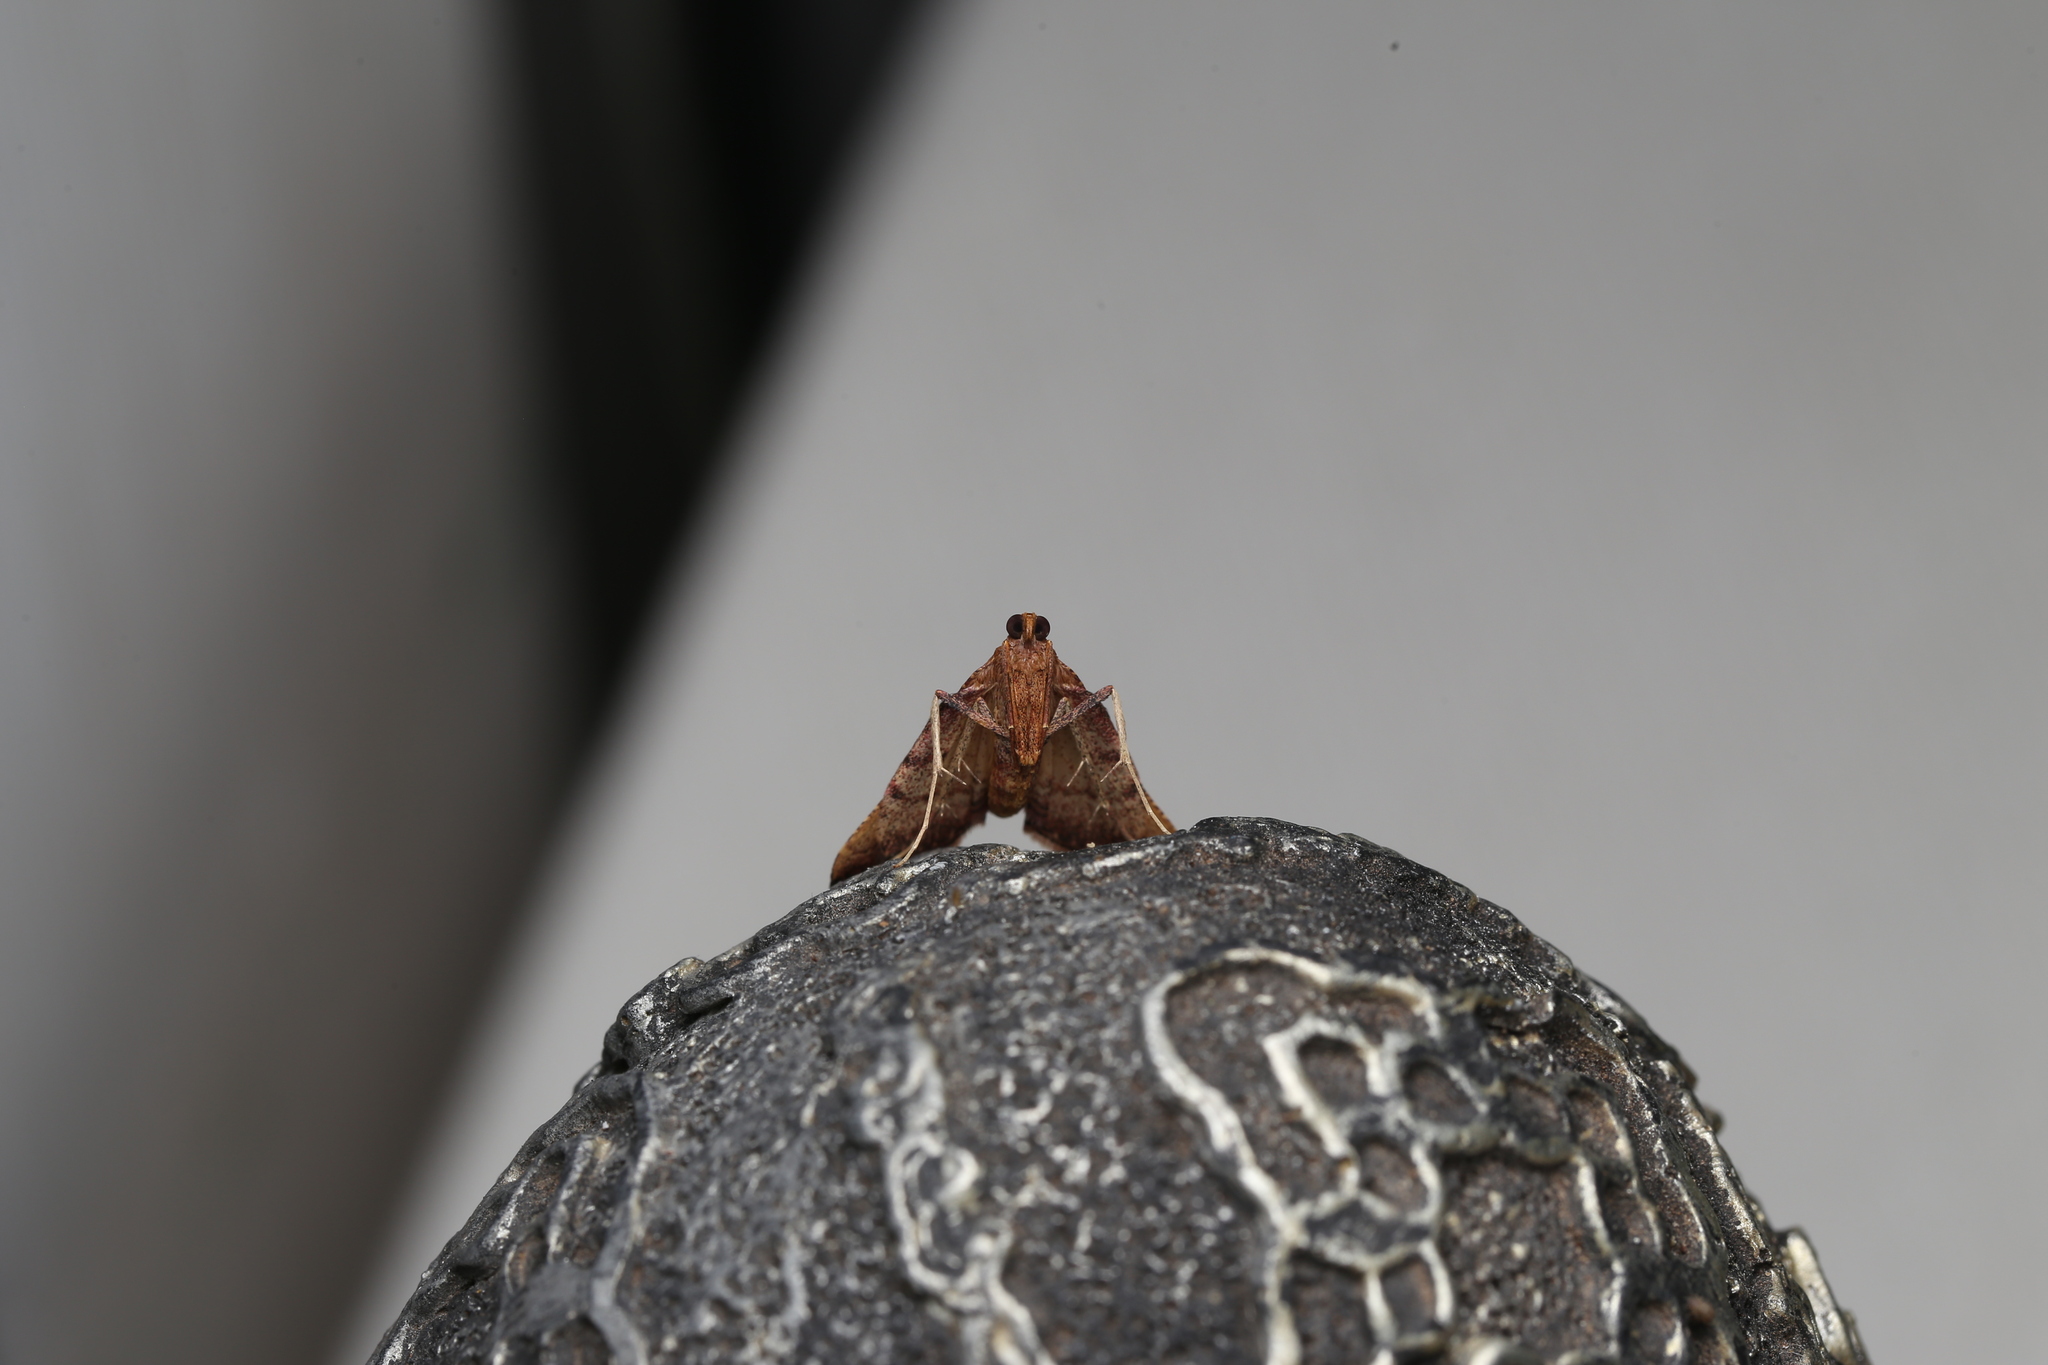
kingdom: Animalia
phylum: Arthropoda
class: Insecta
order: Lepidoptera
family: Pyralidae
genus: Endotricha
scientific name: Endotricha pyrosalis
